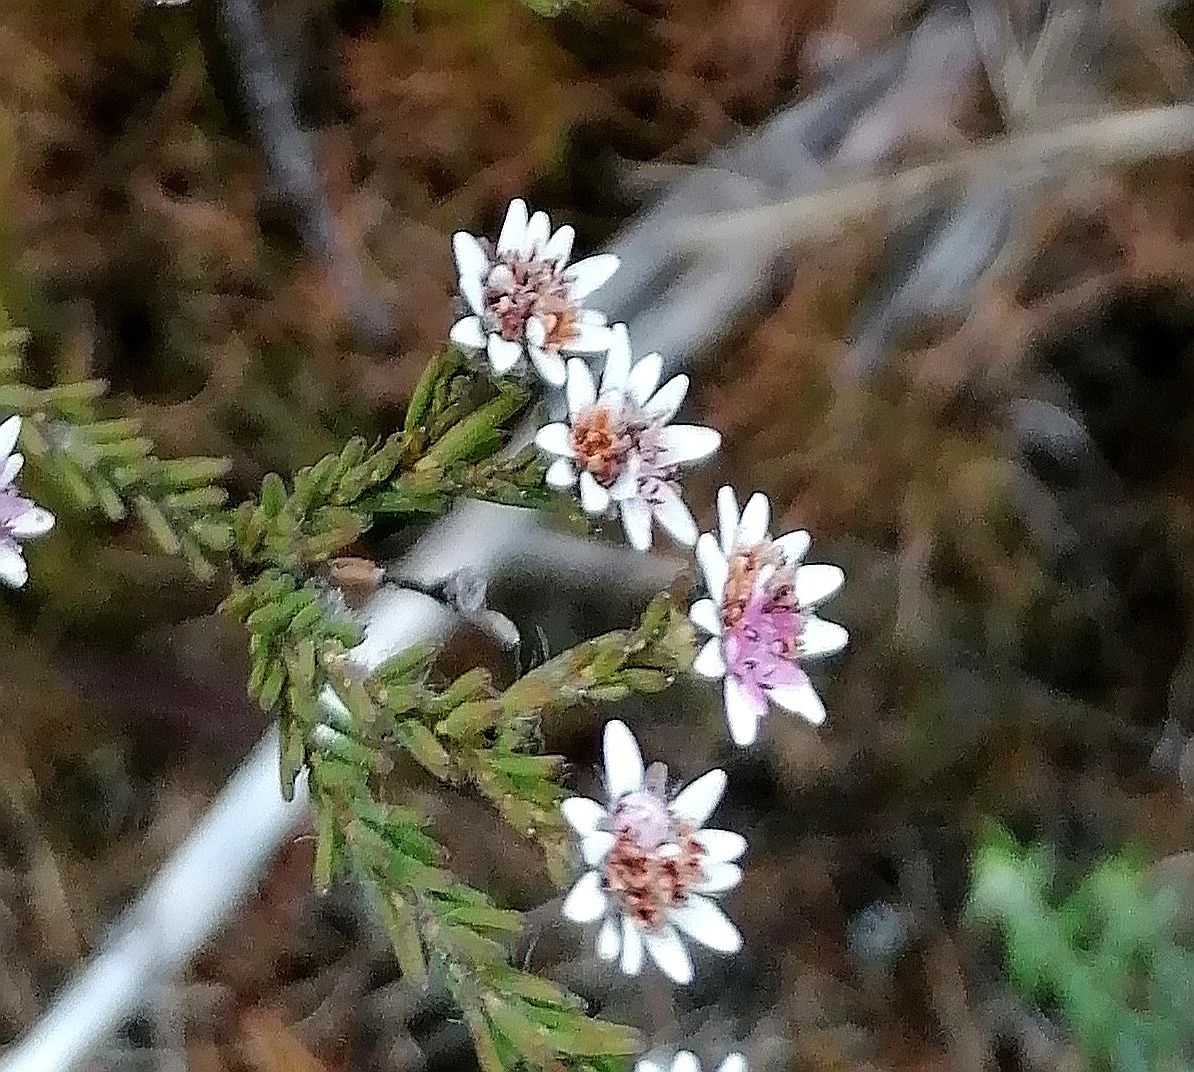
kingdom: Plantae
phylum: Tracheophyta
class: Magnoliopsida
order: Bruniales
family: Bruniaceae
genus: Staavia
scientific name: Staavia radiata
